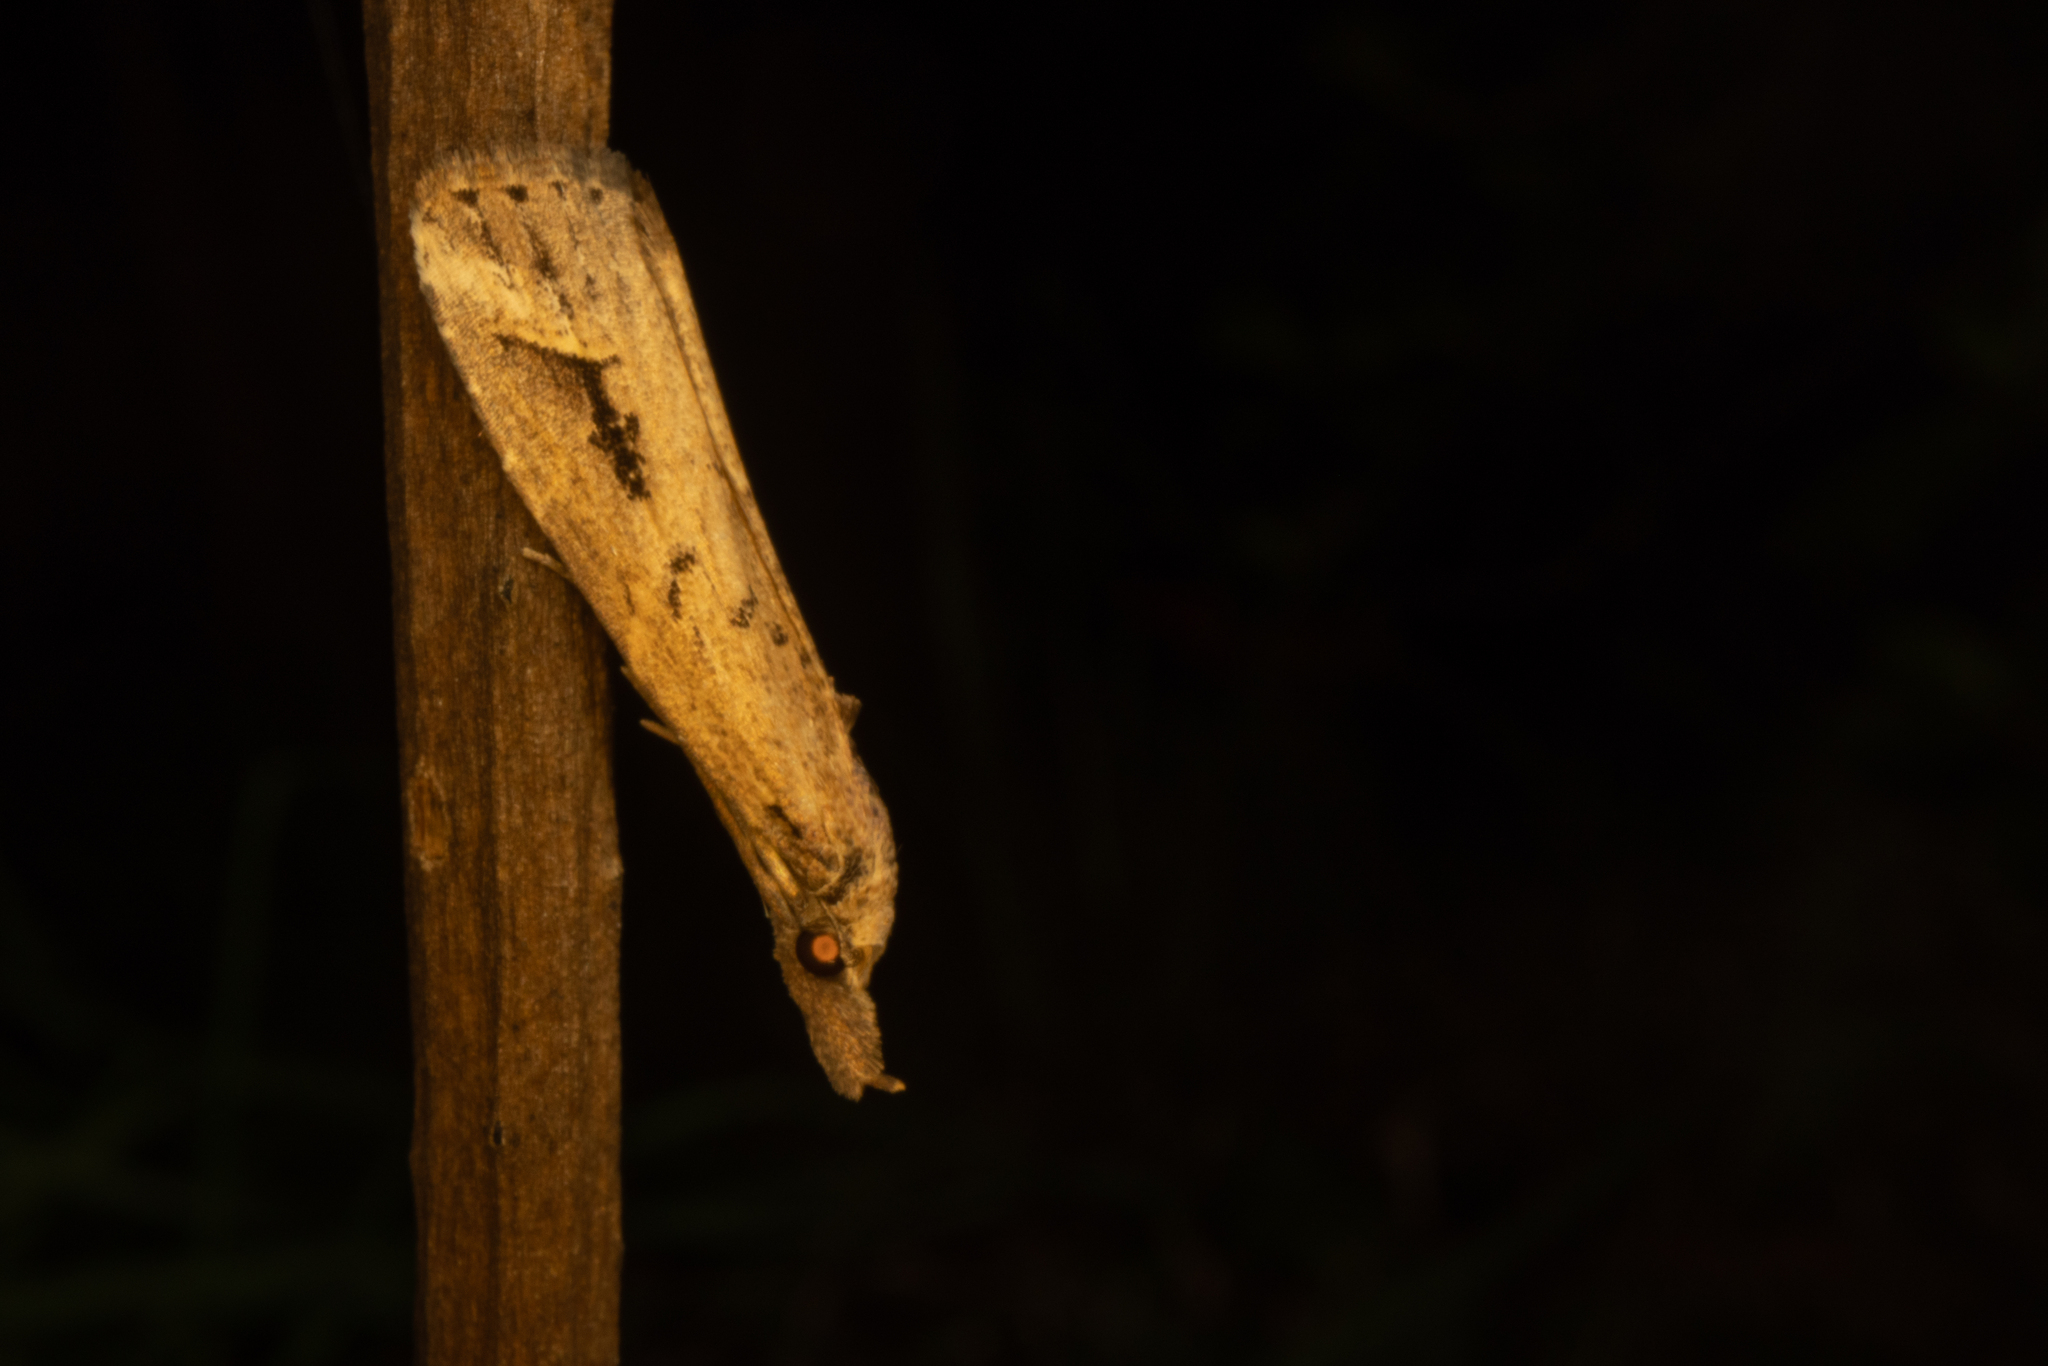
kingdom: Animalia
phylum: Arthropoda
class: Insecta
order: Lepidoptera
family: Erebidae
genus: Schrankia
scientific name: Schrankia costaestrigalis
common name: Pinion-streaked snout
